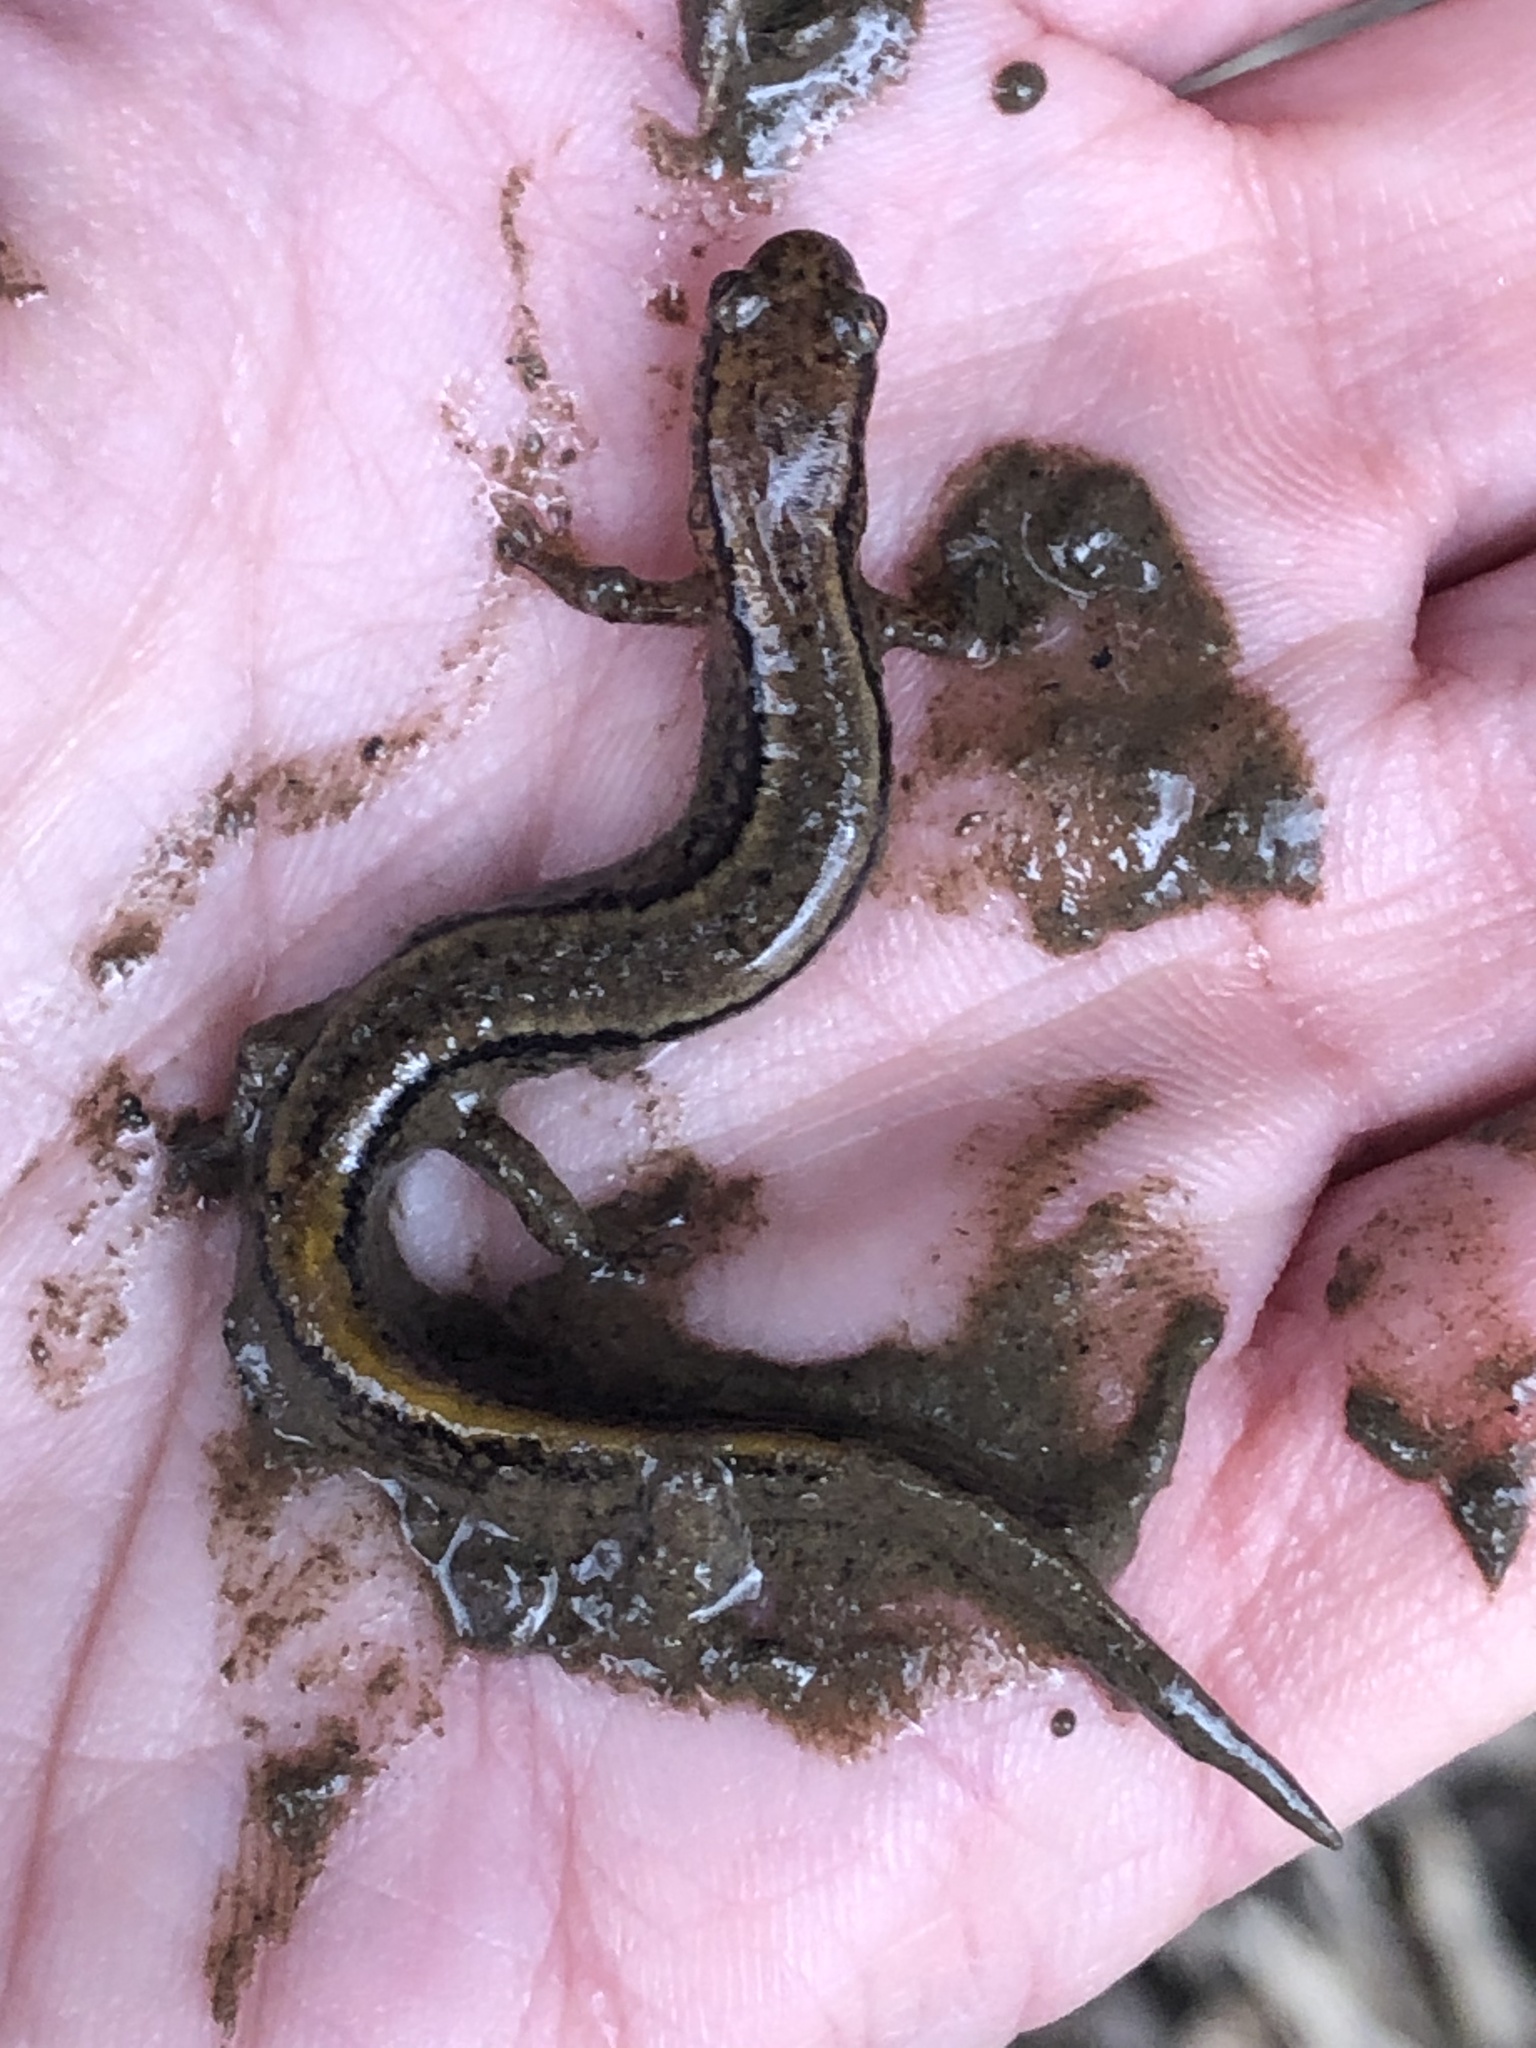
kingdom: Animalia
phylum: Chordata
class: Amphibia
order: Caudata
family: Plethodontidae
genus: Eurycea
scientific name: Eurycea bislineata
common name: Northern two-lined salamander
